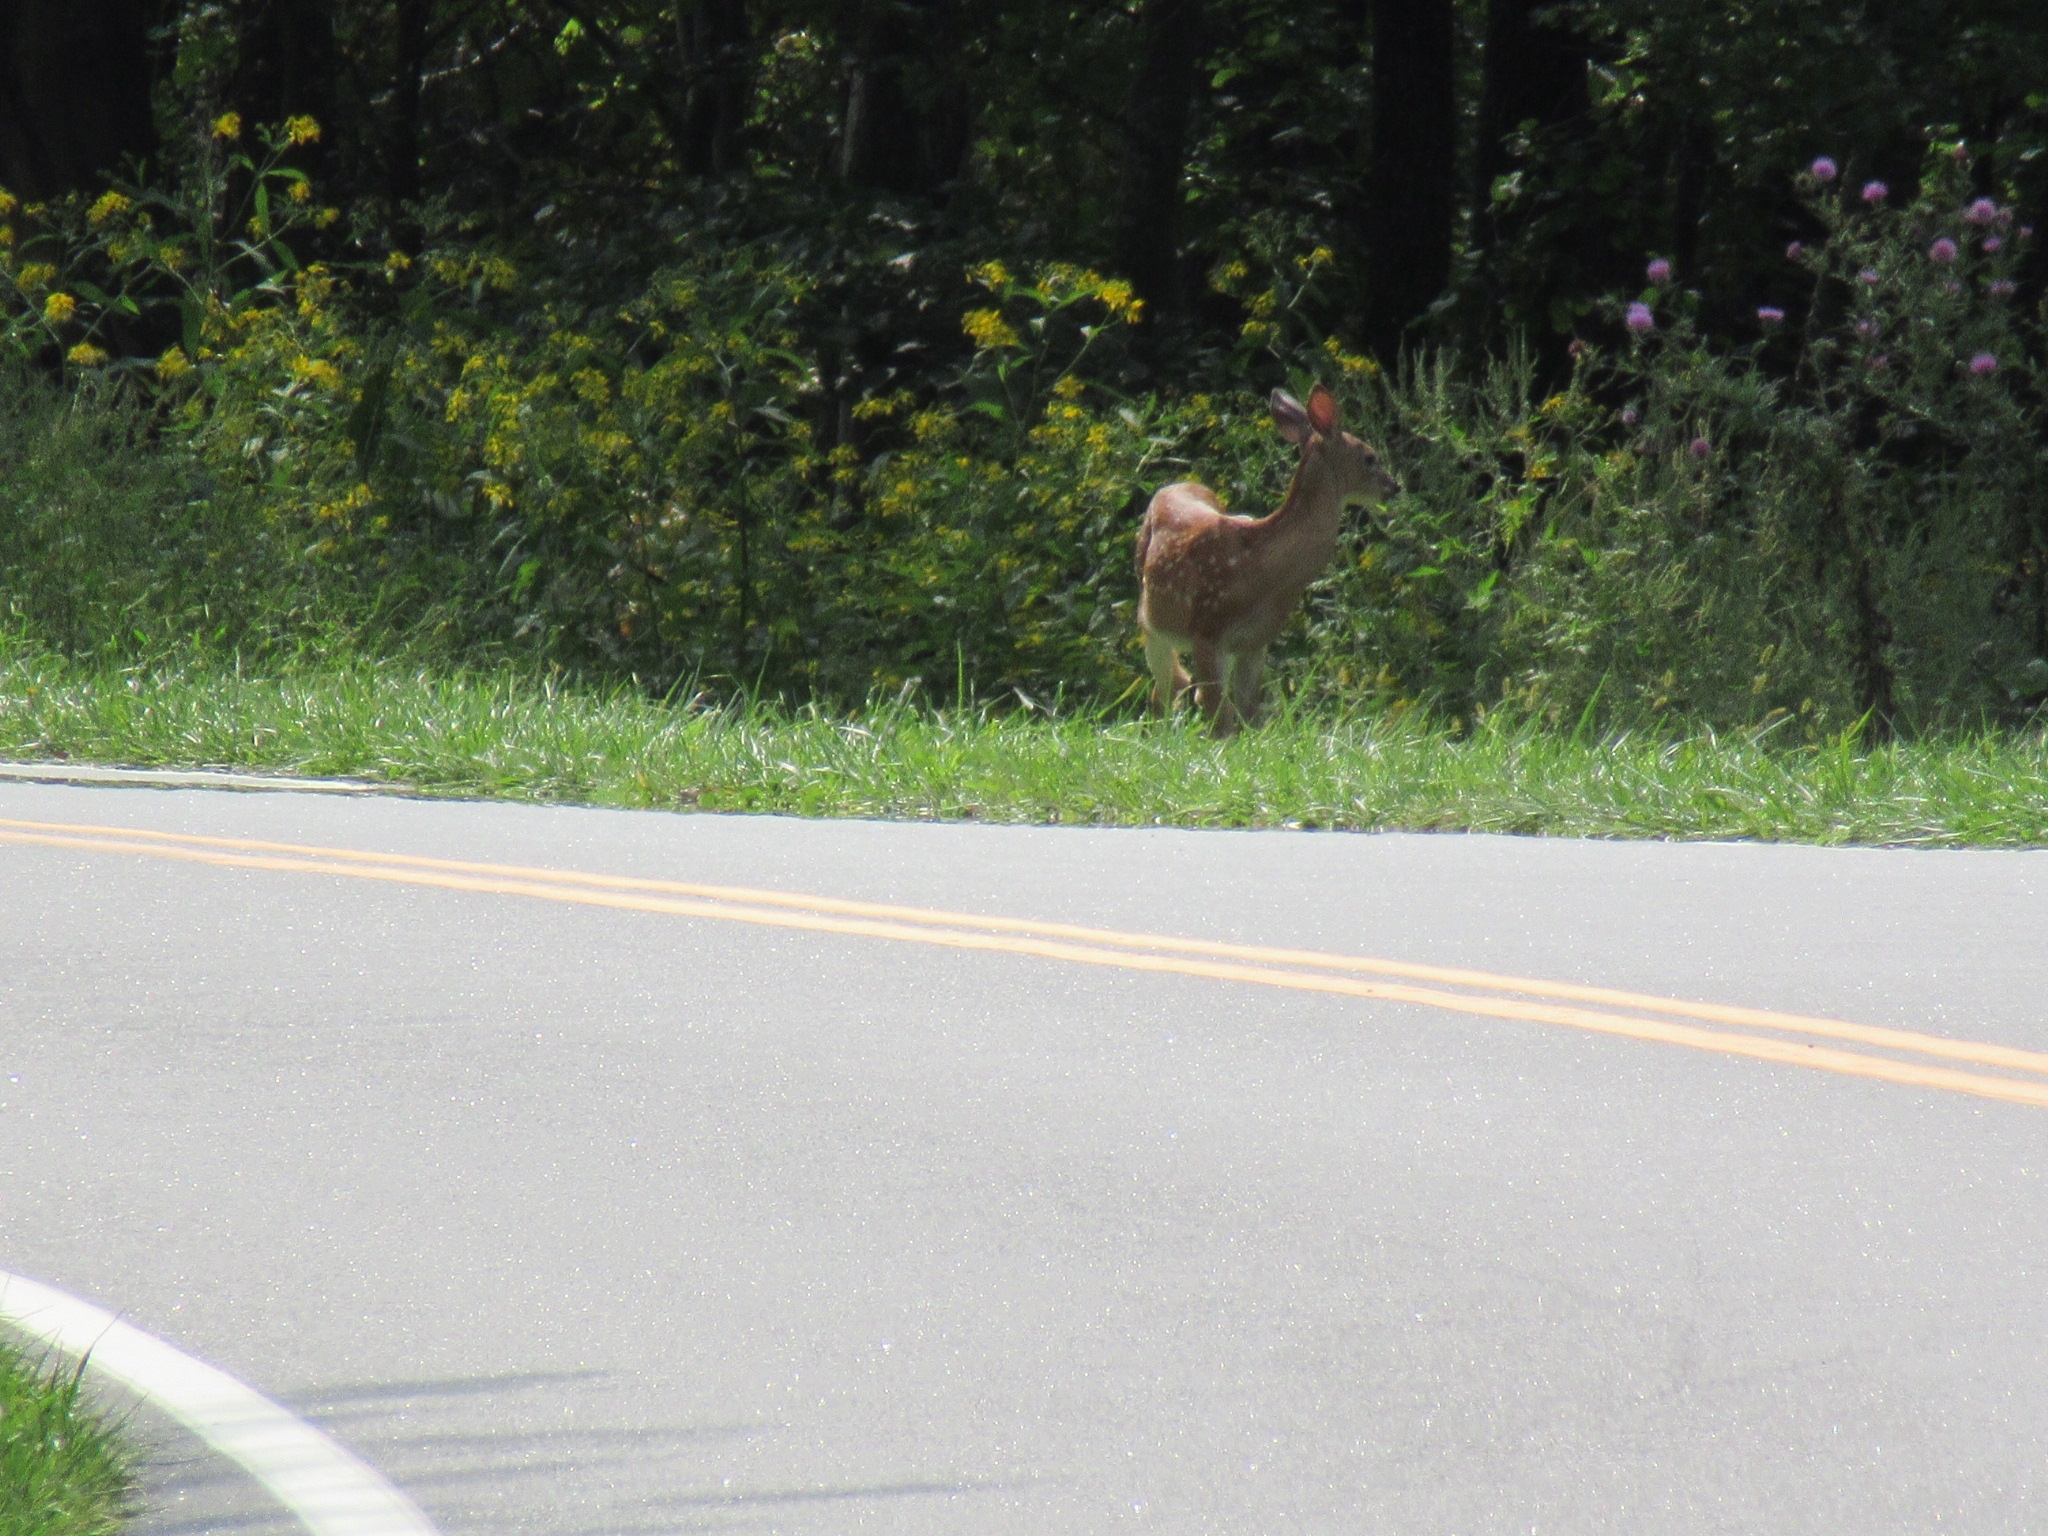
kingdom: Animalia
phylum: Chordata
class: Mammalia
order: Artiodactyla
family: Cervidae
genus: Odocoileus
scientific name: Odocoileus virginianus
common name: White-tailed deer
